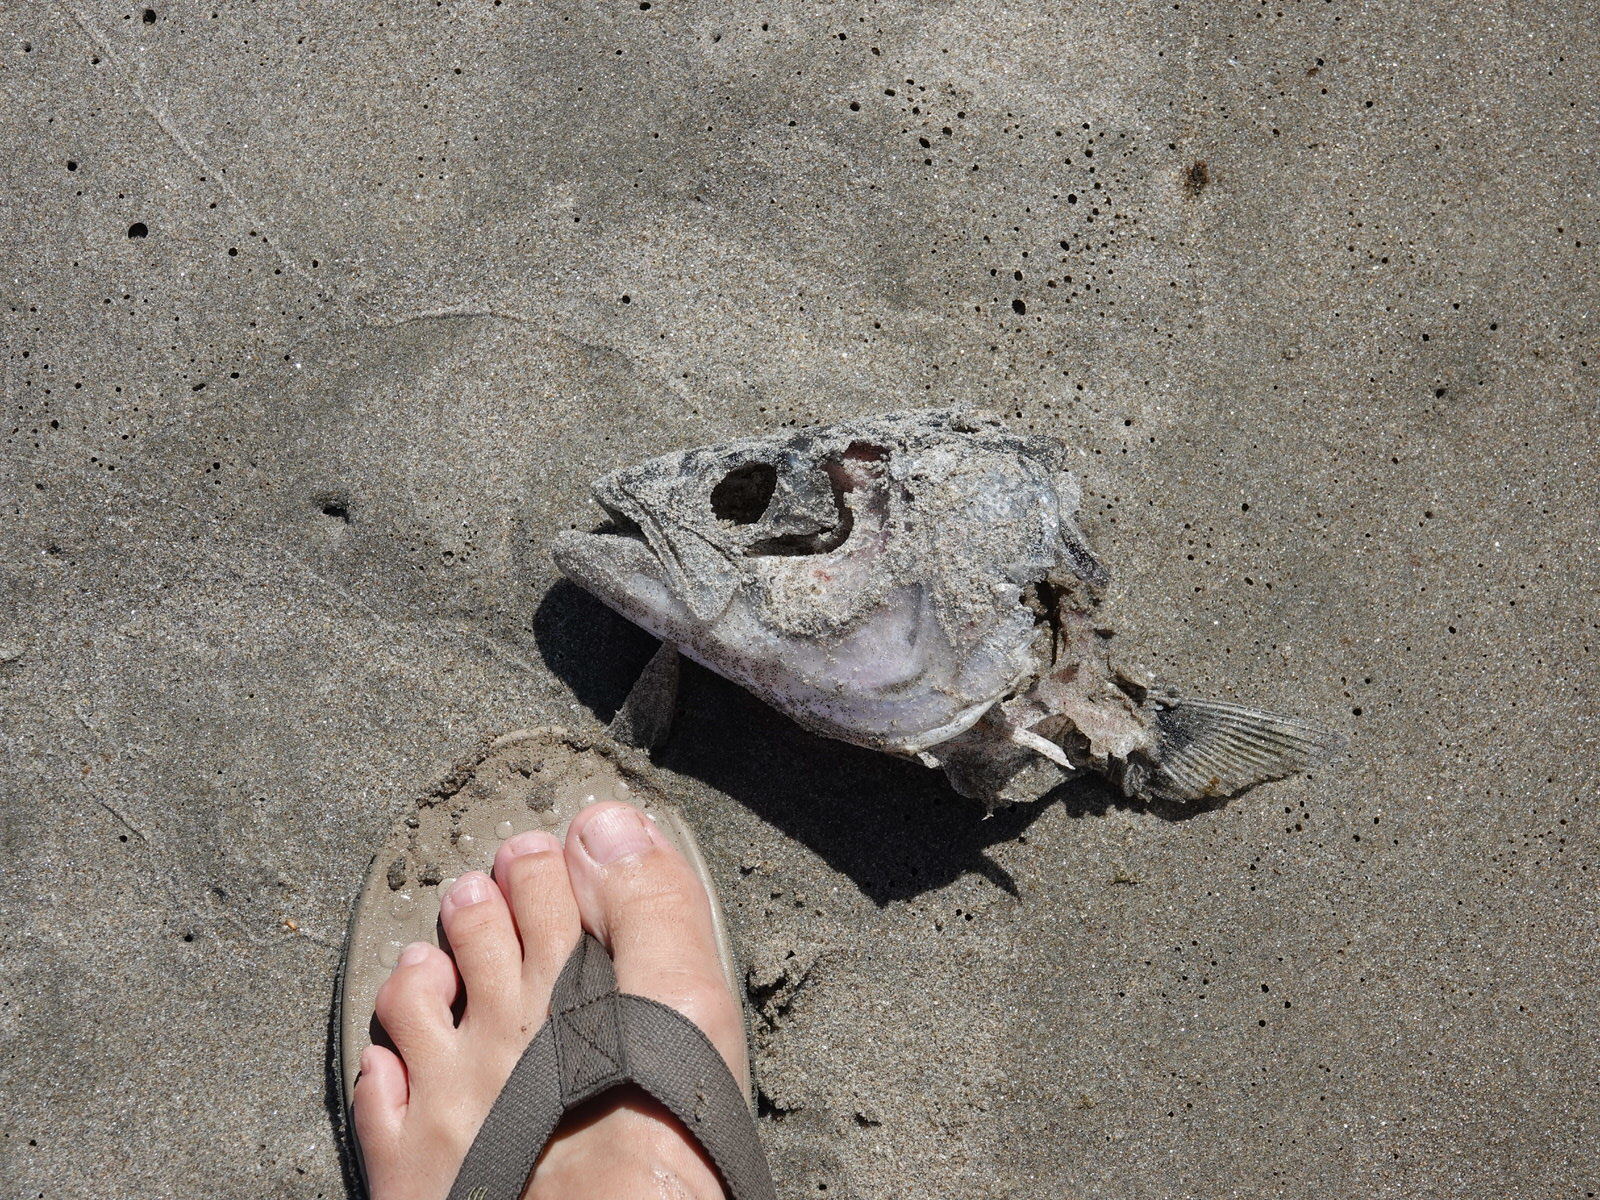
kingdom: Animalia
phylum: Chordata
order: Perciformes
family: Arripidae
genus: Arripis
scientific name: Arripis trutta
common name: Kahawai
